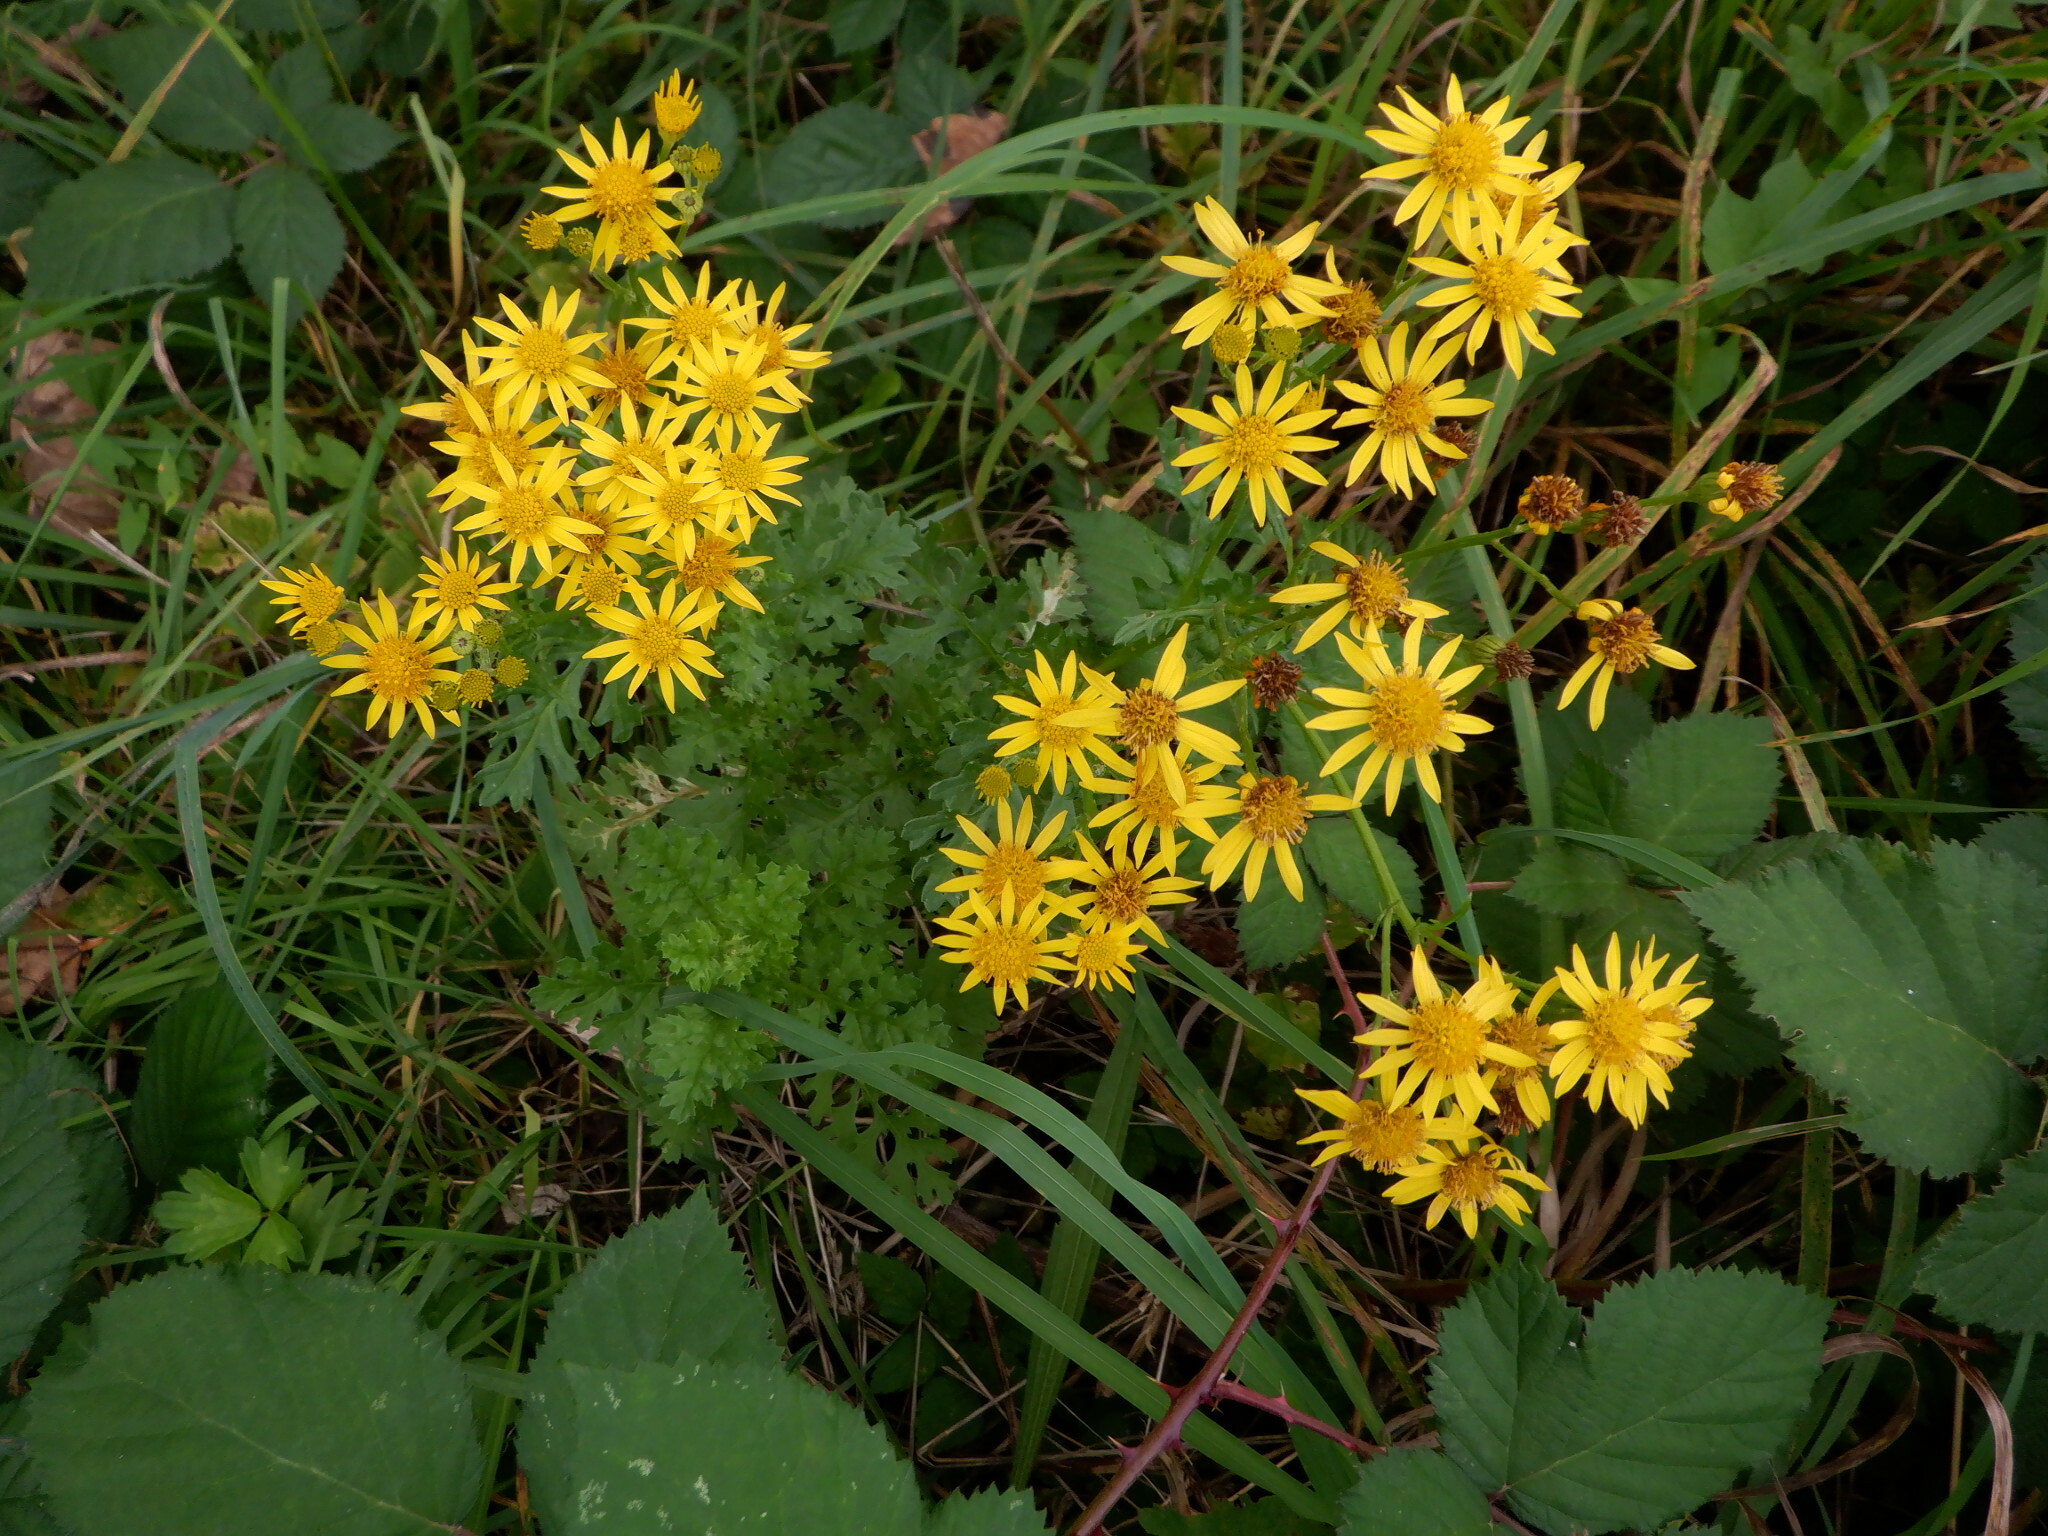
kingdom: Plantae
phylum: Tracheophyta
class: Magnoliopsida
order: Asterales
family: Asteraceae
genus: Jacobaea
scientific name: Jacobaea vulgaris
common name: Stinking willie
